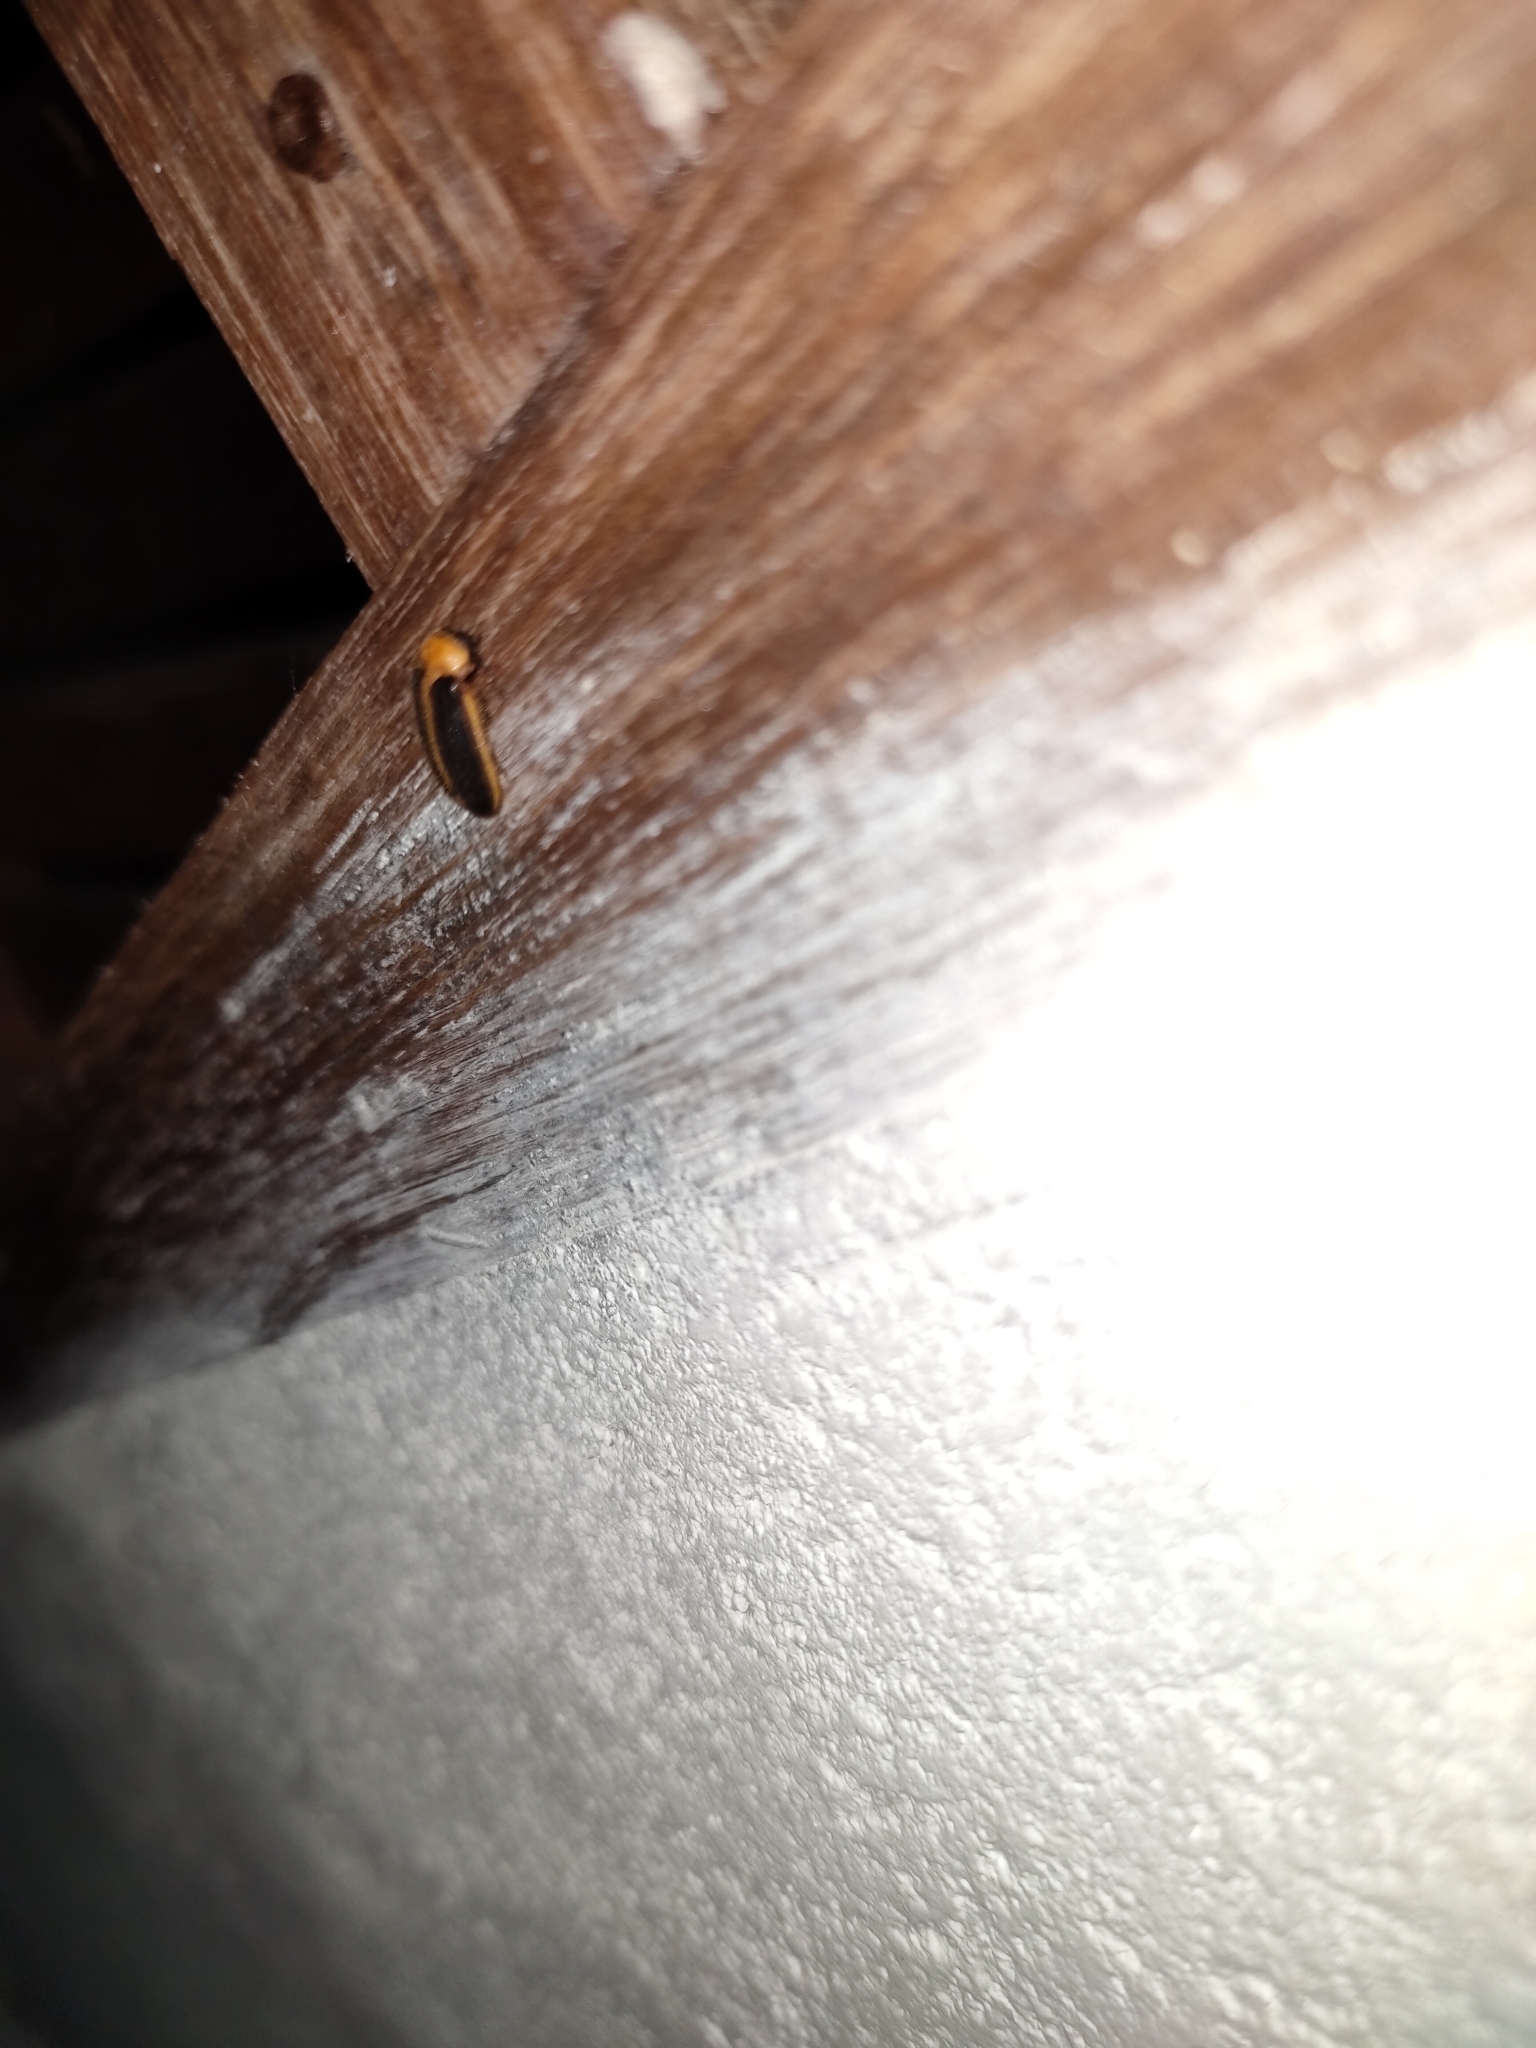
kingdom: Animalia
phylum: Arthropoda
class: Insecta
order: Coleoptera
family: Lampyridae
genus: Pyrocoelia
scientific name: Pyrocoelia analis
